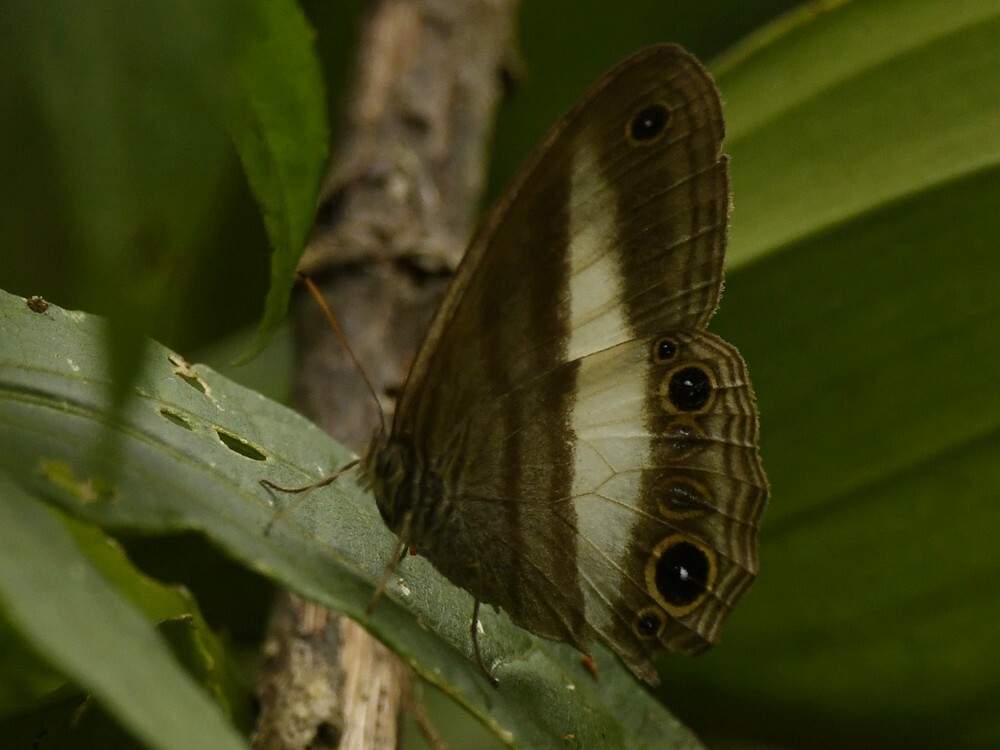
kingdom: Animalia
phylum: Arthropoda
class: Insecta
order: Lepidoptera
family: Nymphalidae
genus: Euptychoides
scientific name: Euptychoides albofasciata
